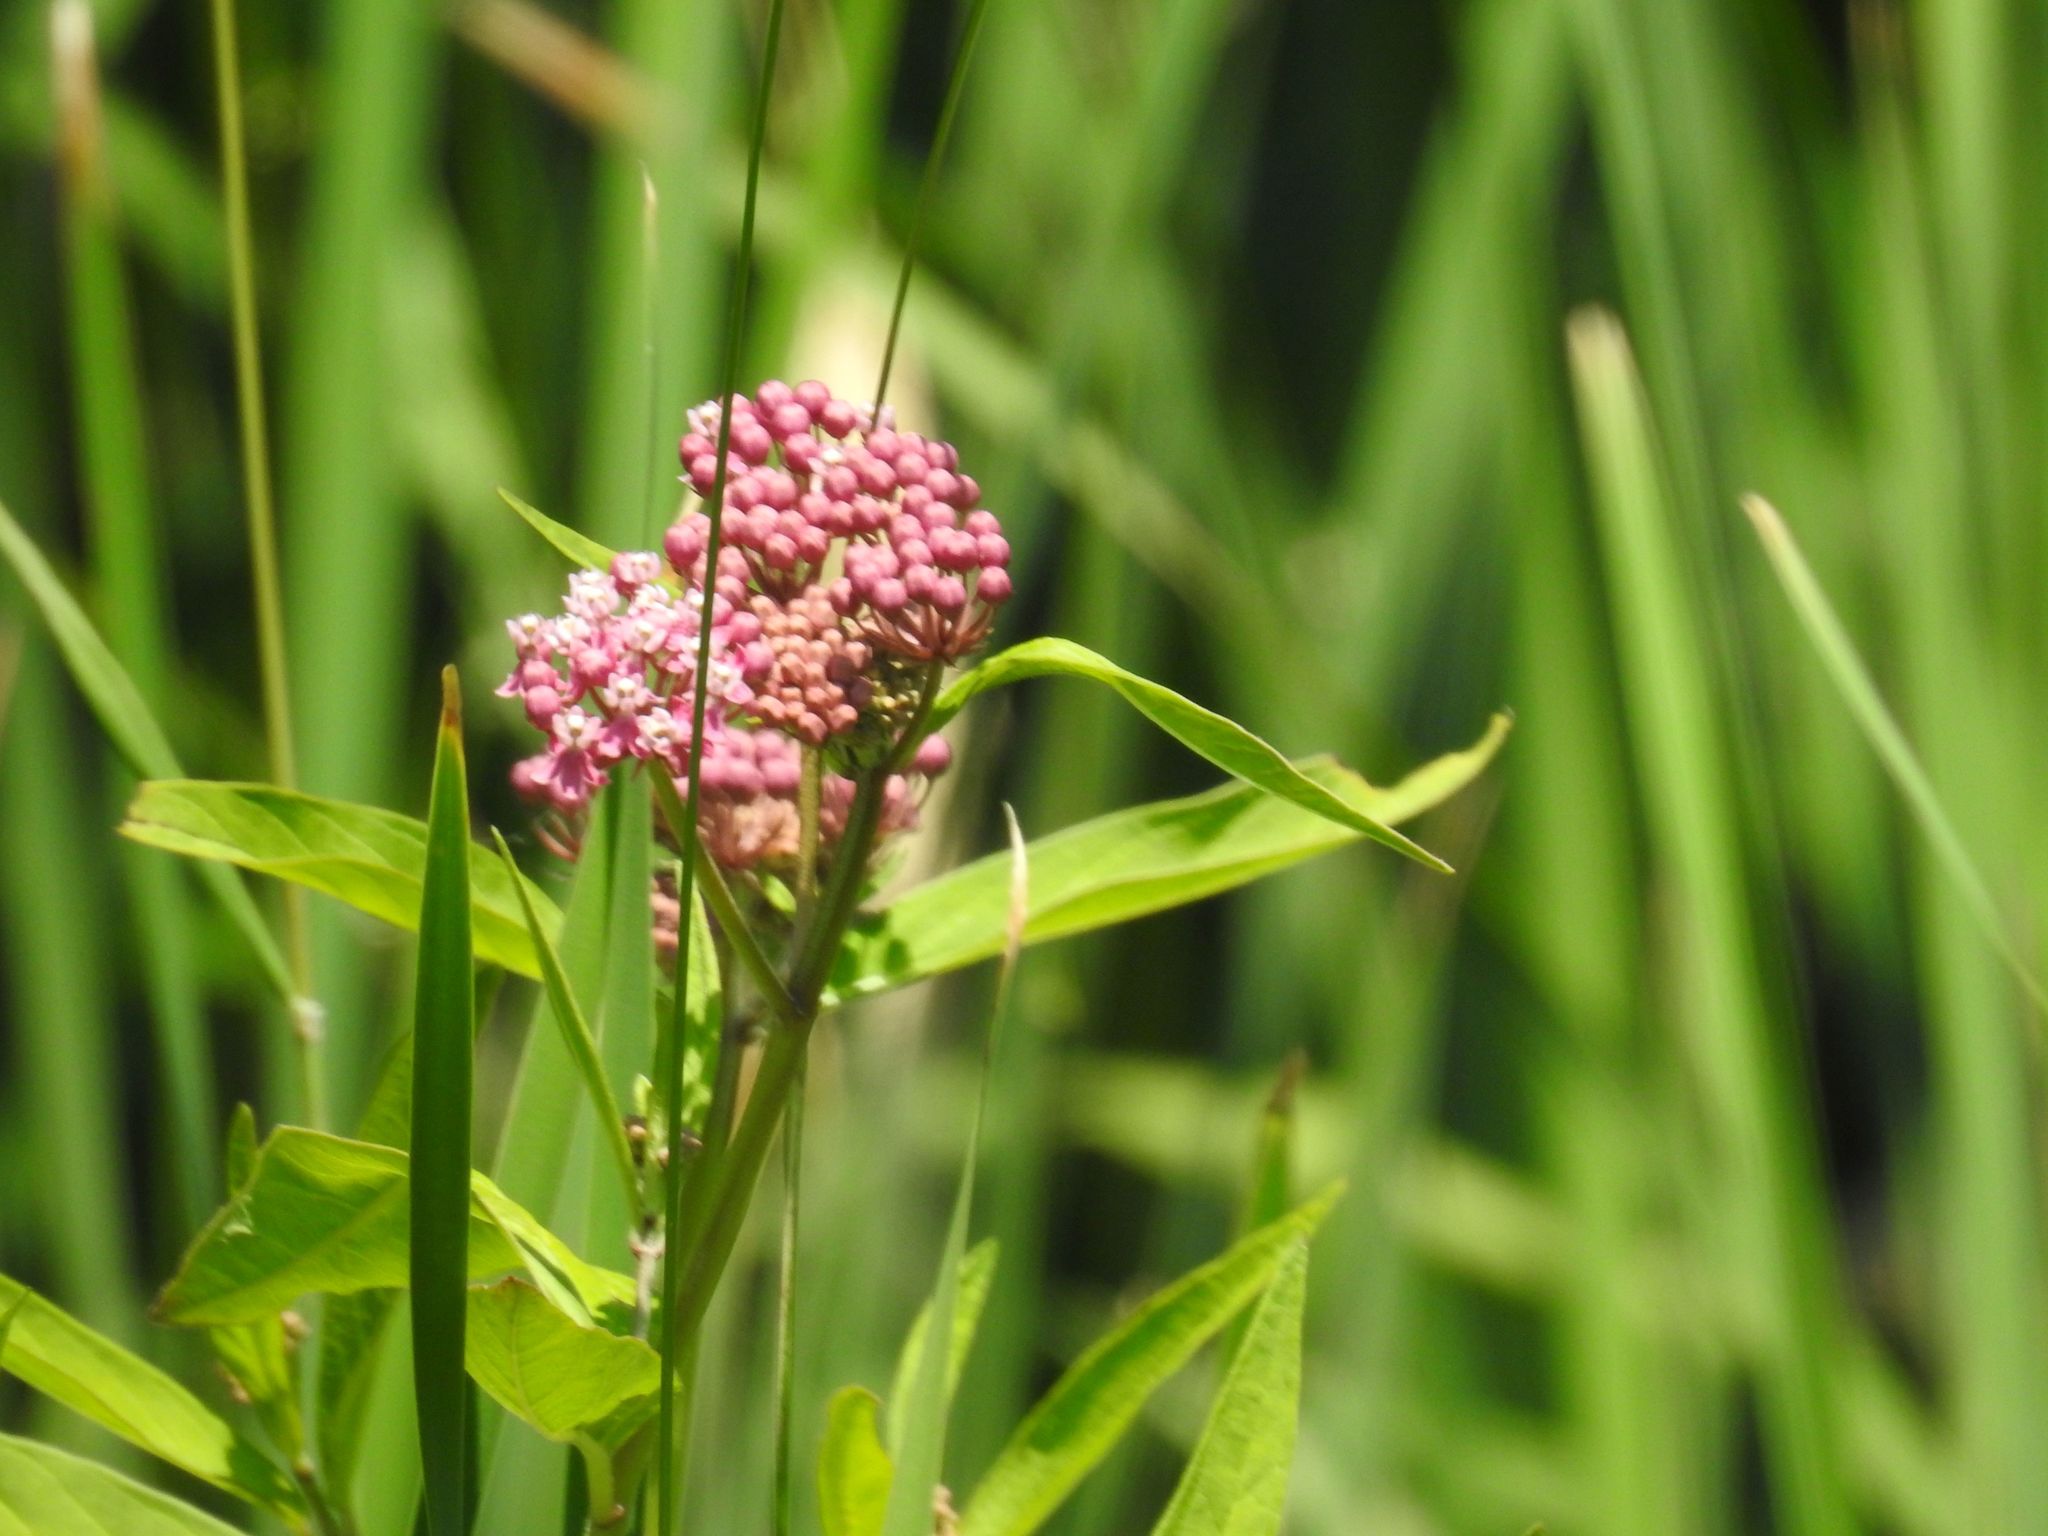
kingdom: Plantae
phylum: Tracheophyta
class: Magnoliopsida
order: Gentianales
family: Apocynaceae
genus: Asclepias
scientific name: Asclepias incarnata
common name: Swamp milkweed
